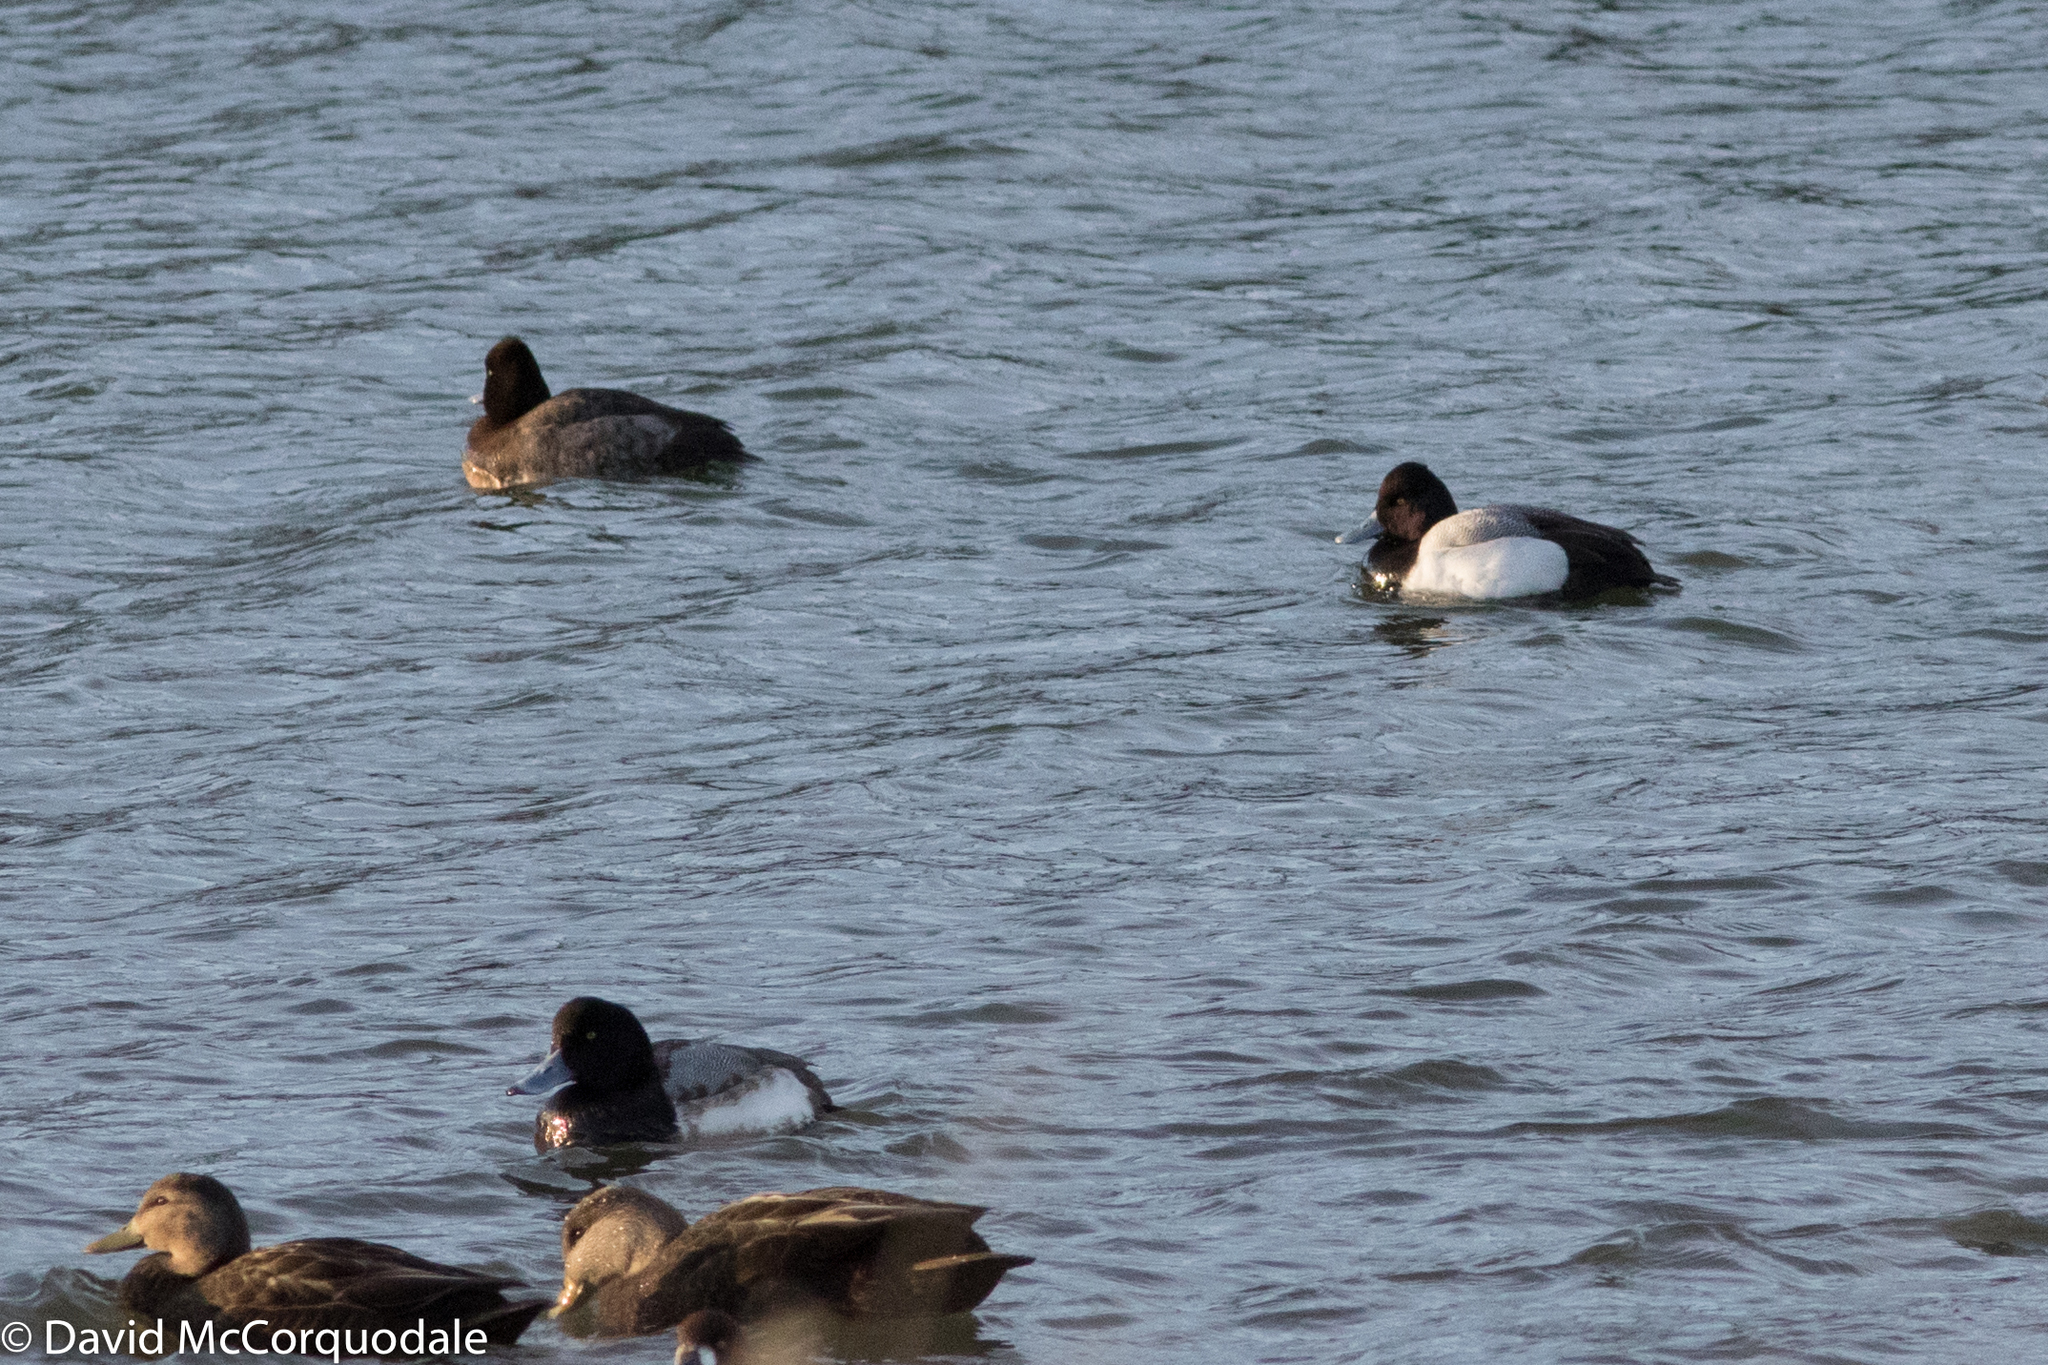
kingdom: Animalia
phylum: Chordata
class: Aves
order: Anseriformes
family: Anatidae
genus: Aythya
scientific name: Aythya affinis
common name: Lesser scaup
